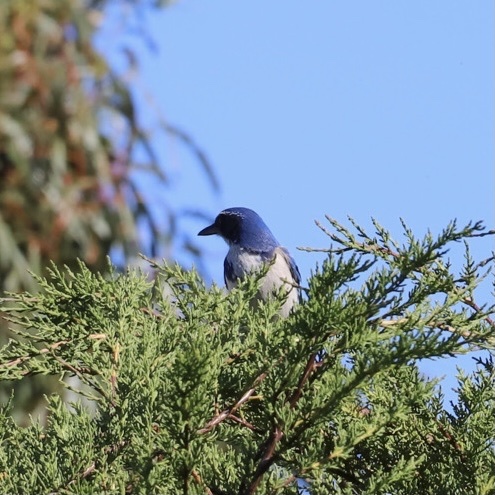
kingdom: Animalia
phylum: Chordata
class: Aves
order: Passeriformes
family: Corvidae
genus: Aphelocoma
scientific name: Aphelocoma californica
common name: California scrub-jay
